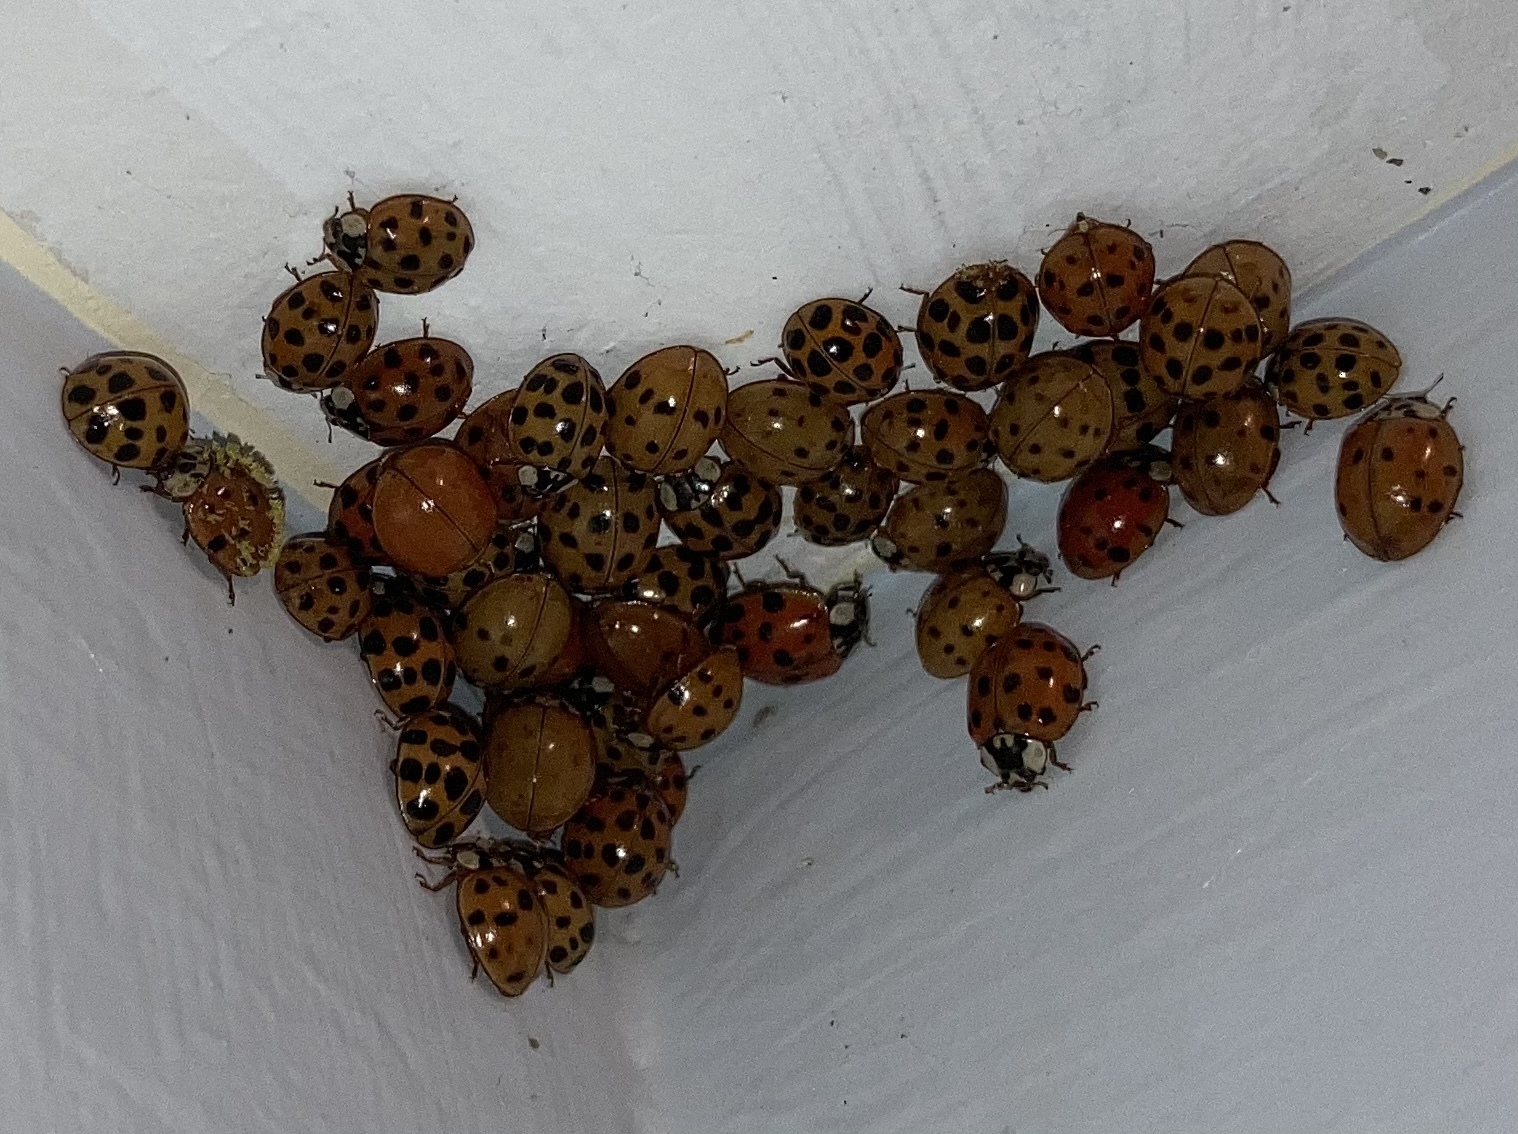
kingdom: Animalia
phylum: Arthropoda
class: Insecta
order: Coleoptera
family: Coccinellidae
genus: Harmonia
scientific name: Harmonia axyridis
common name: Harlequin ladybird
